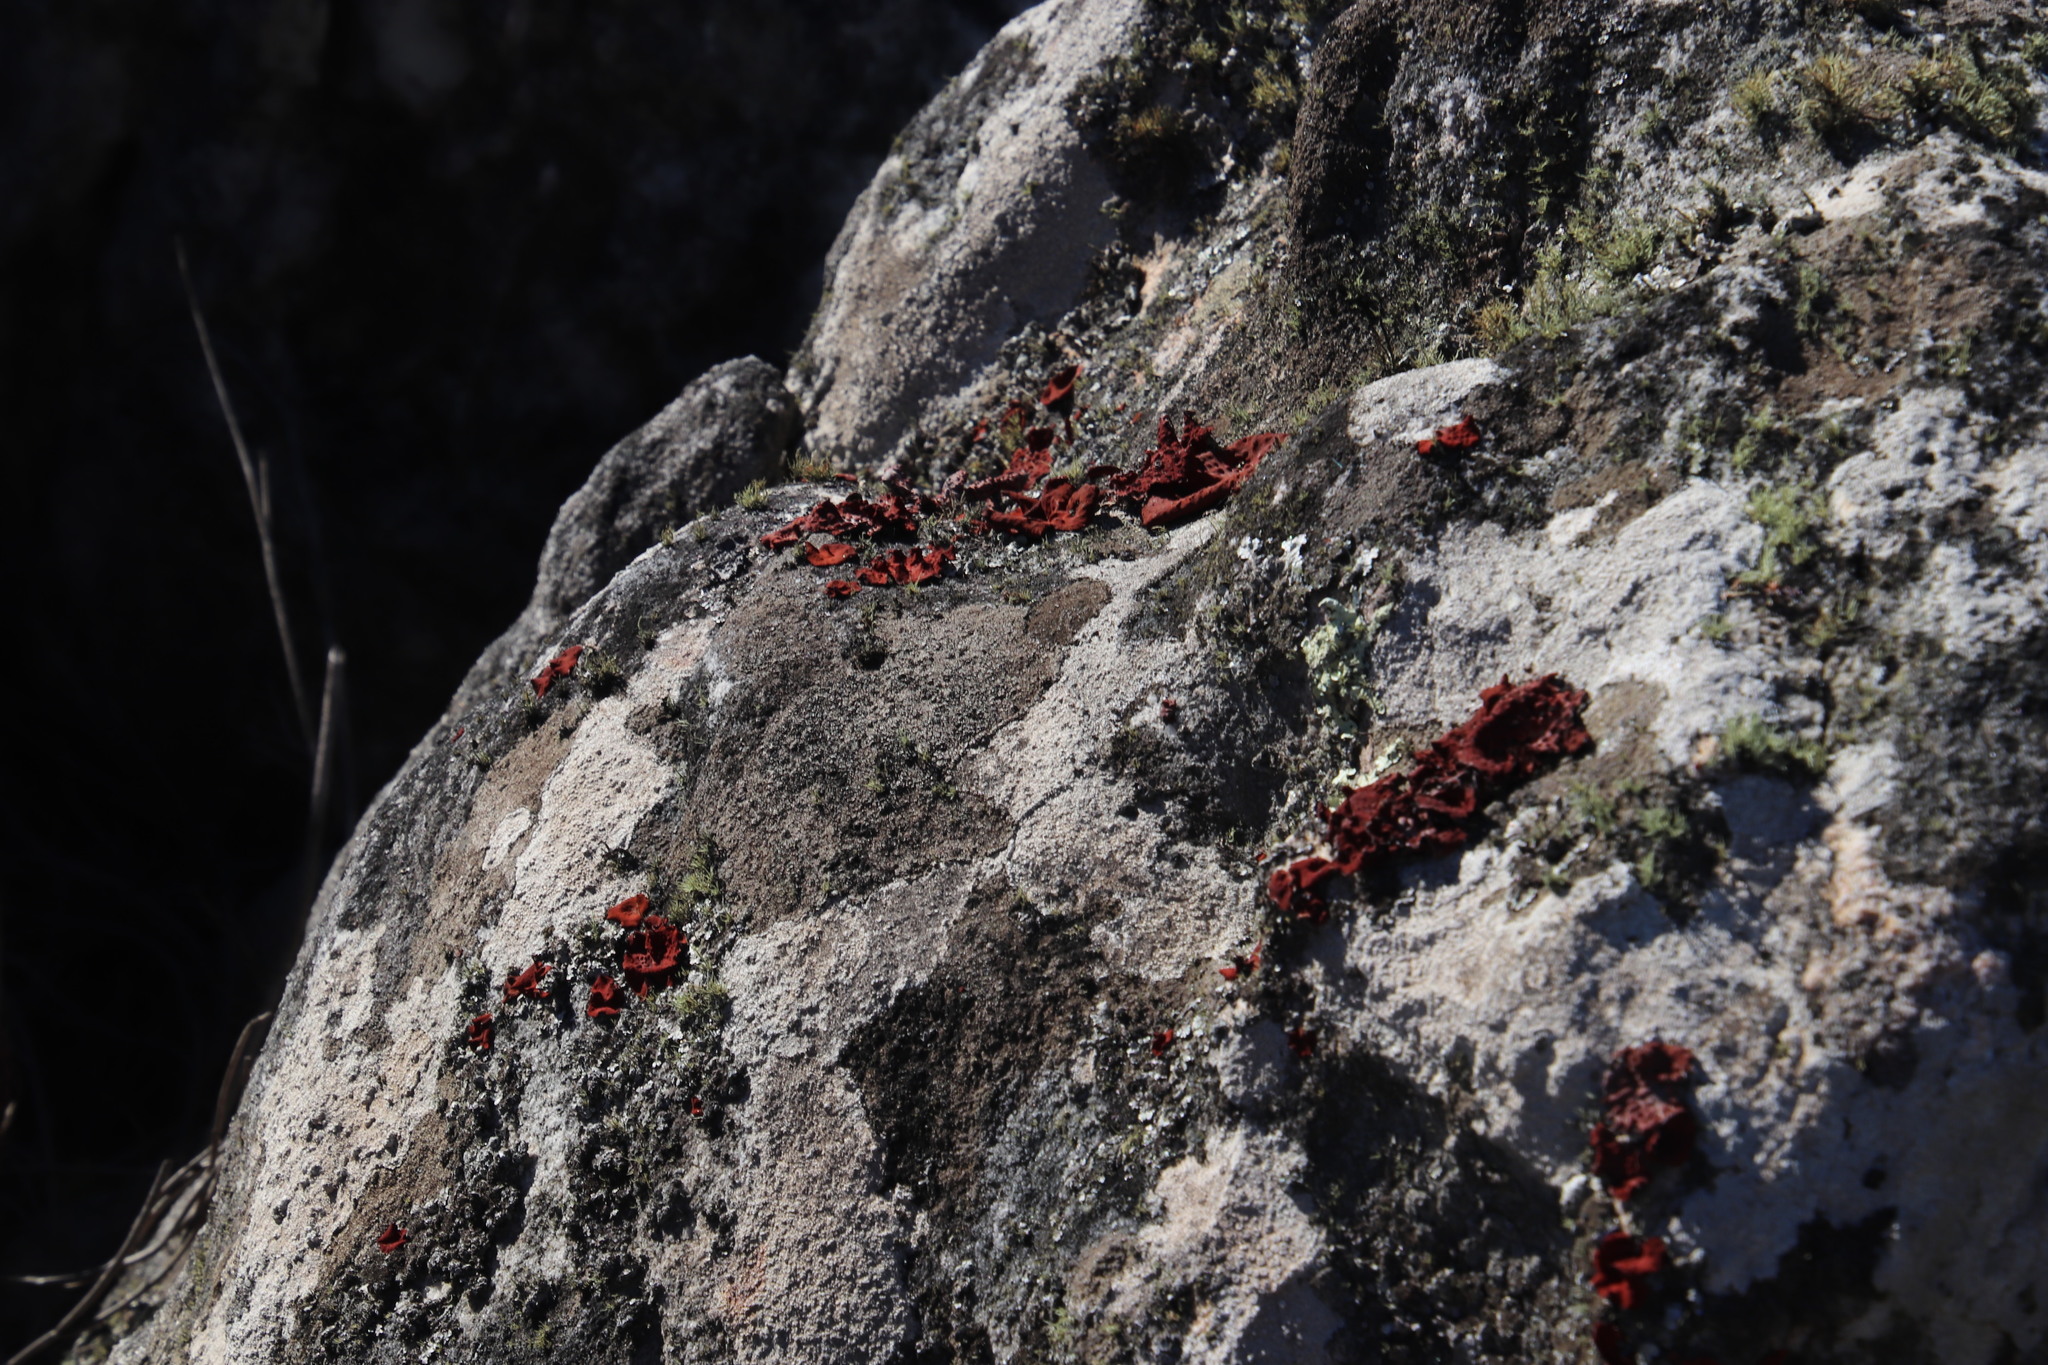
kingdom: Fungi
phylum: Ascomycota
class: Lecanoromycetes
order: Umbilicariales
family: Umbilicariaceae
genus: Lasallia
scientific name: Lasallia rubiginosa
